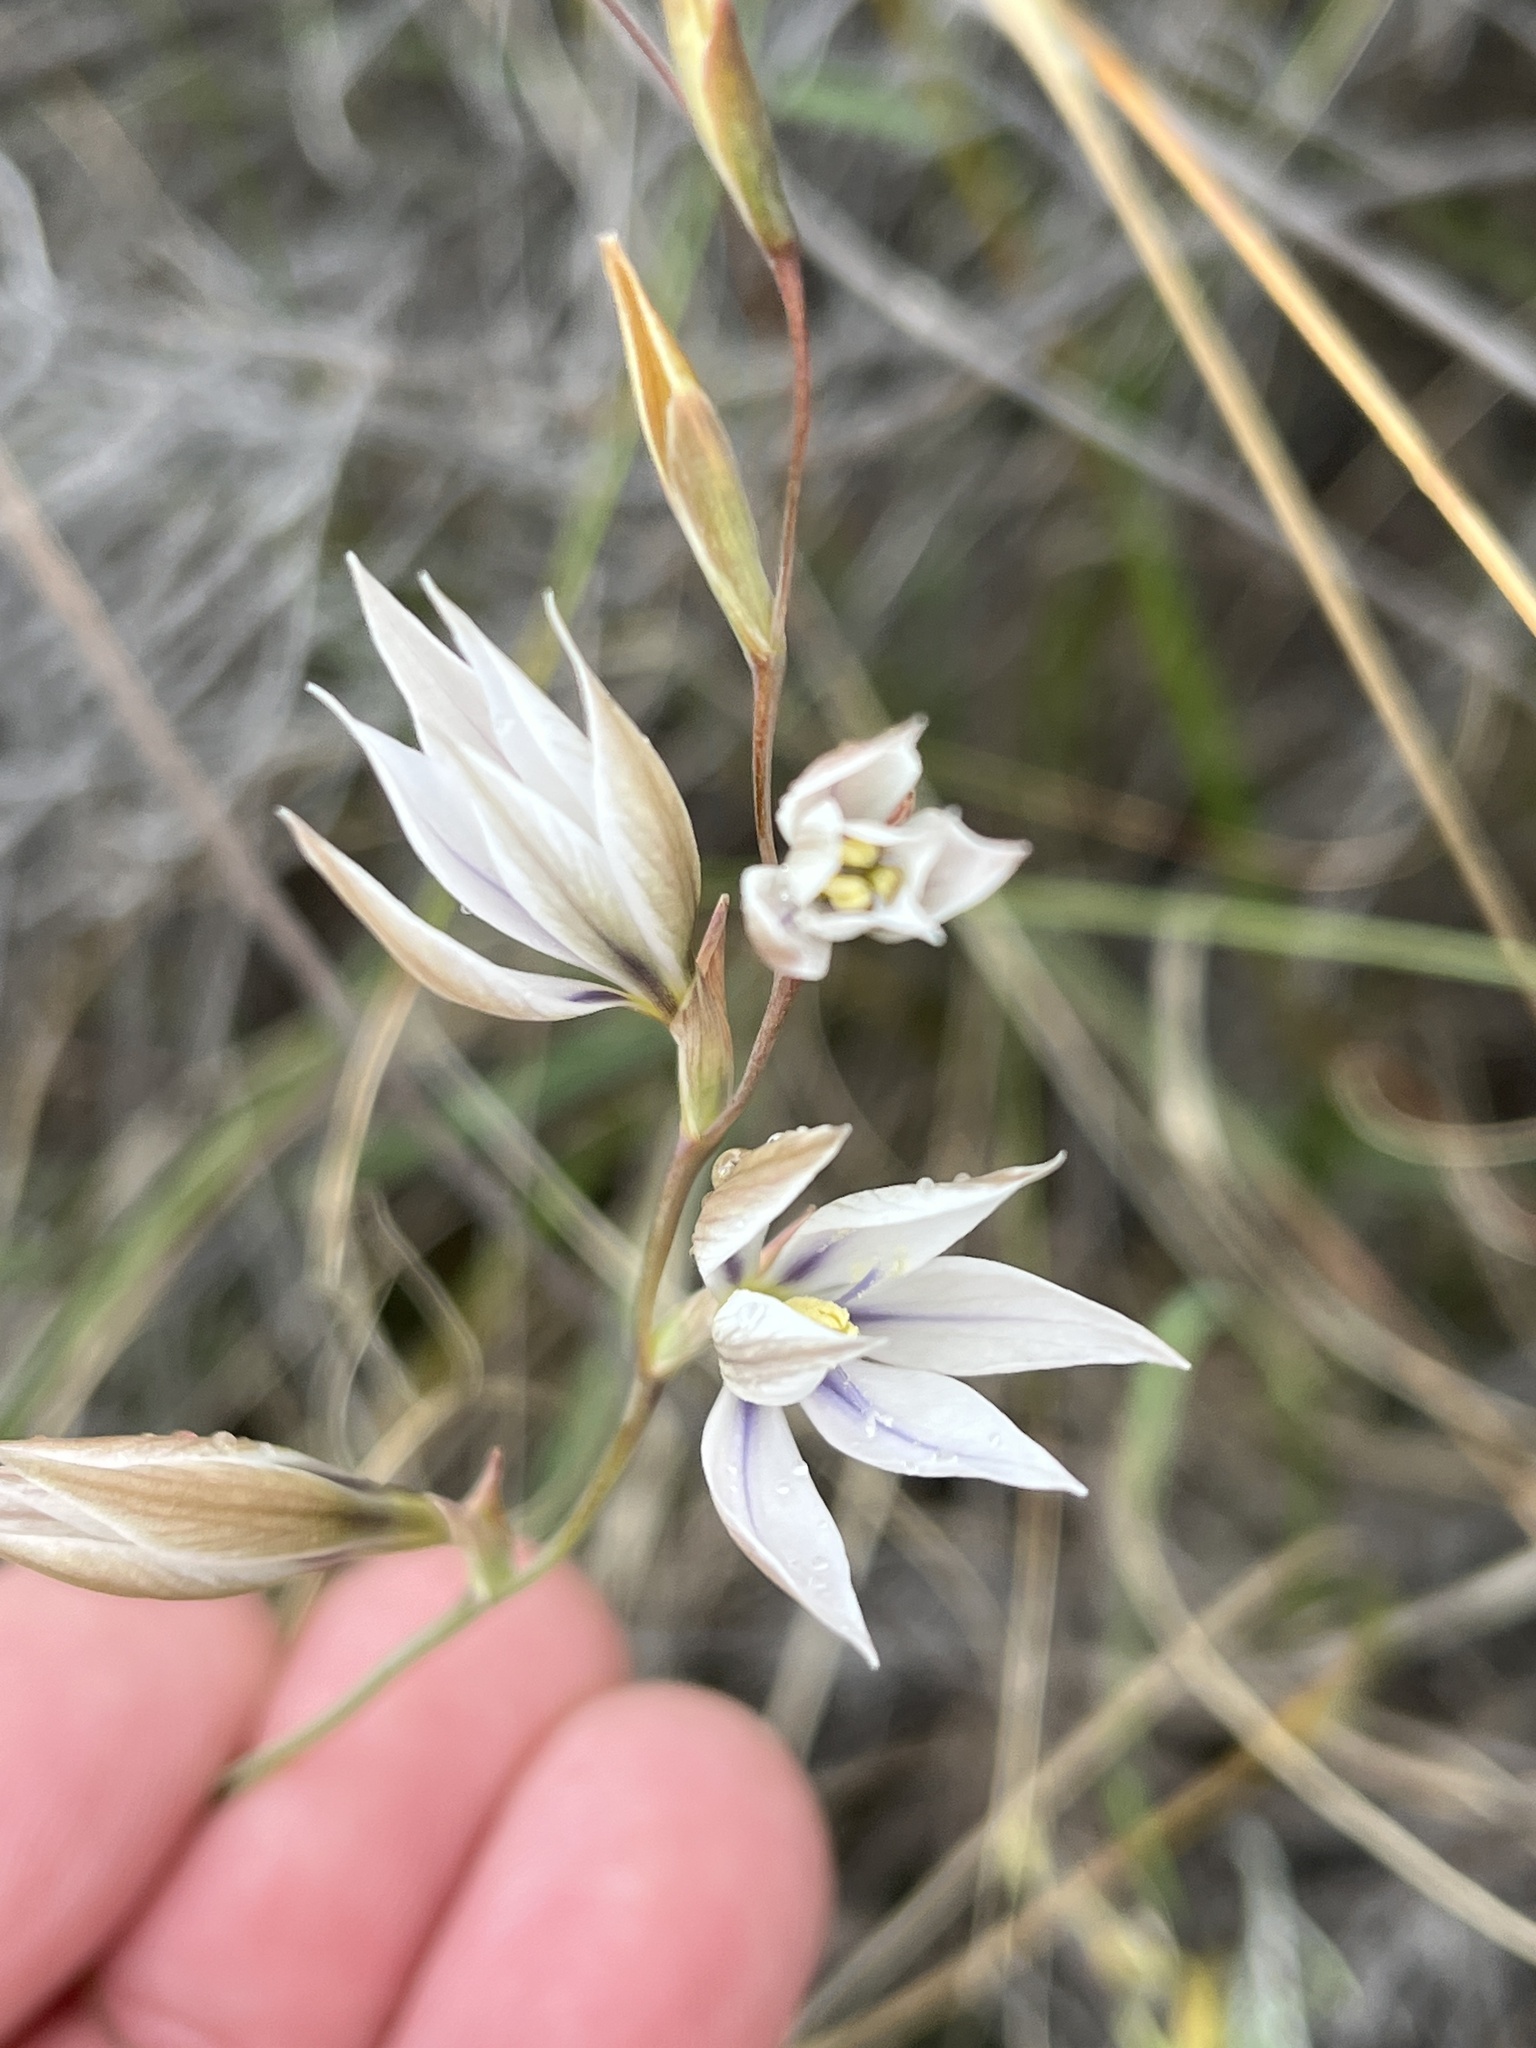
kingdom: Plantae
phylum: Tracheophyta
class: Liliopsida
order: Asparagales
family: Iridaceae
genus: Gladiolus
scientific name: Gladiolus stellatus
